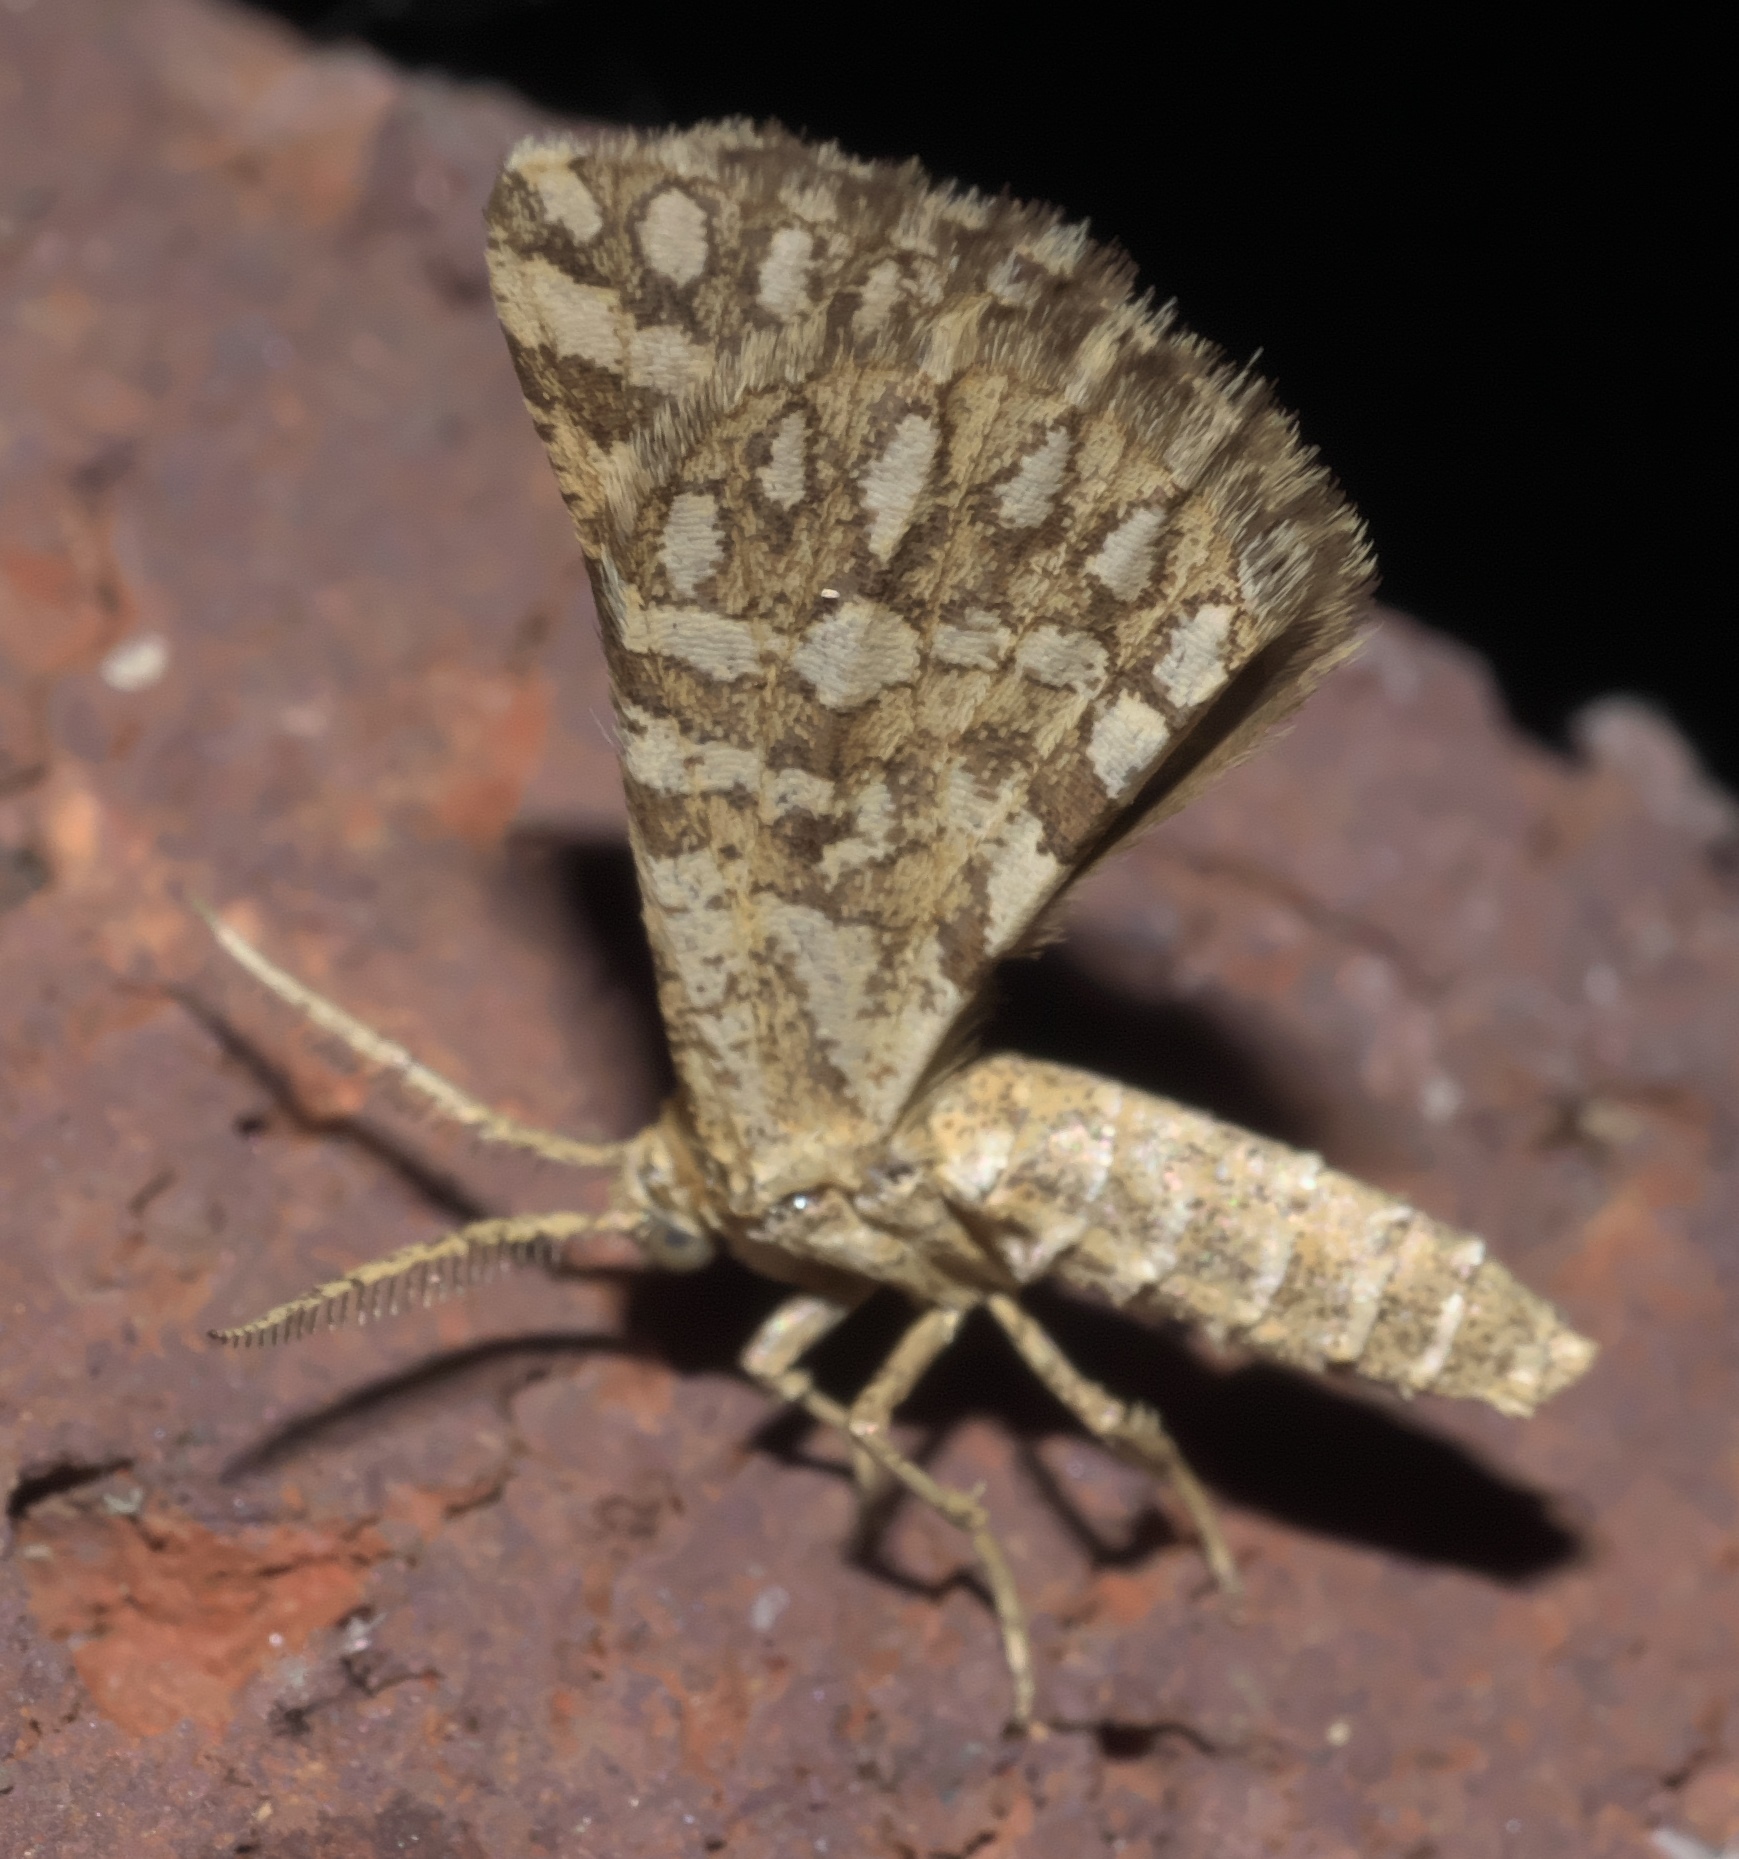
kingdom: Animalia
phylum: Arthropoda
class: Insecta
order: Lepidoptera
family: Geometridae
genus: Narraga
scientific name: Narraga fimetaria
